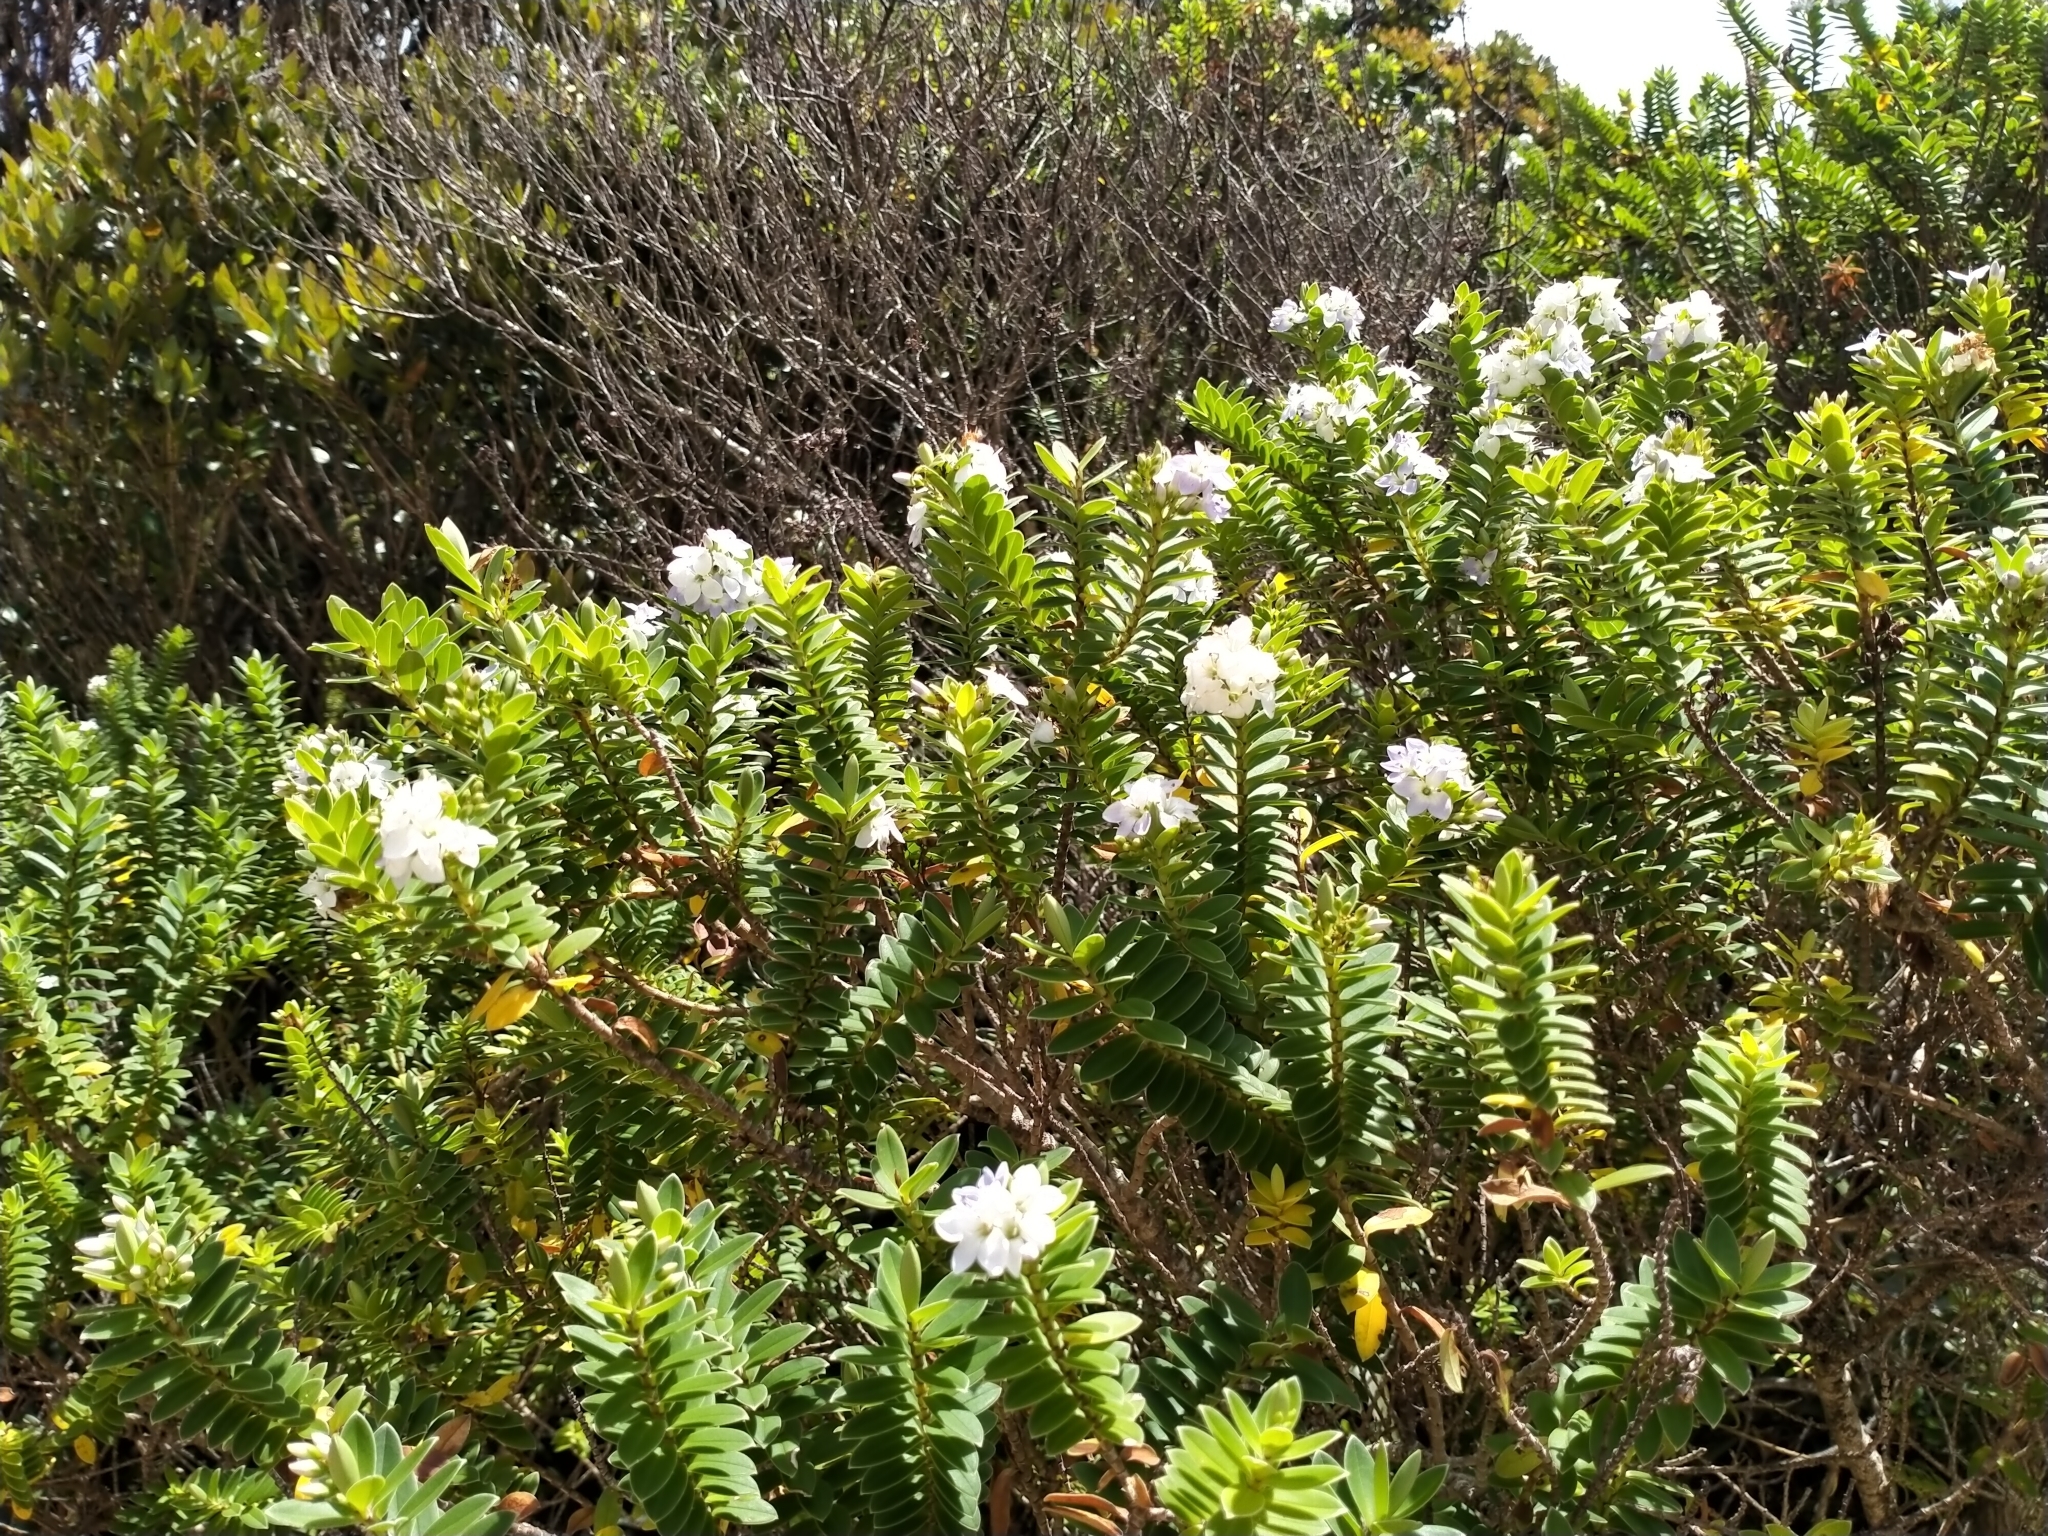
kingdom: Plantae
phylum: Tracheophyta
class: Magnoliopsida
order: Lamiales
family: Plantaginaceae
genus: Veronica
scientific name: Veronica elliptica
